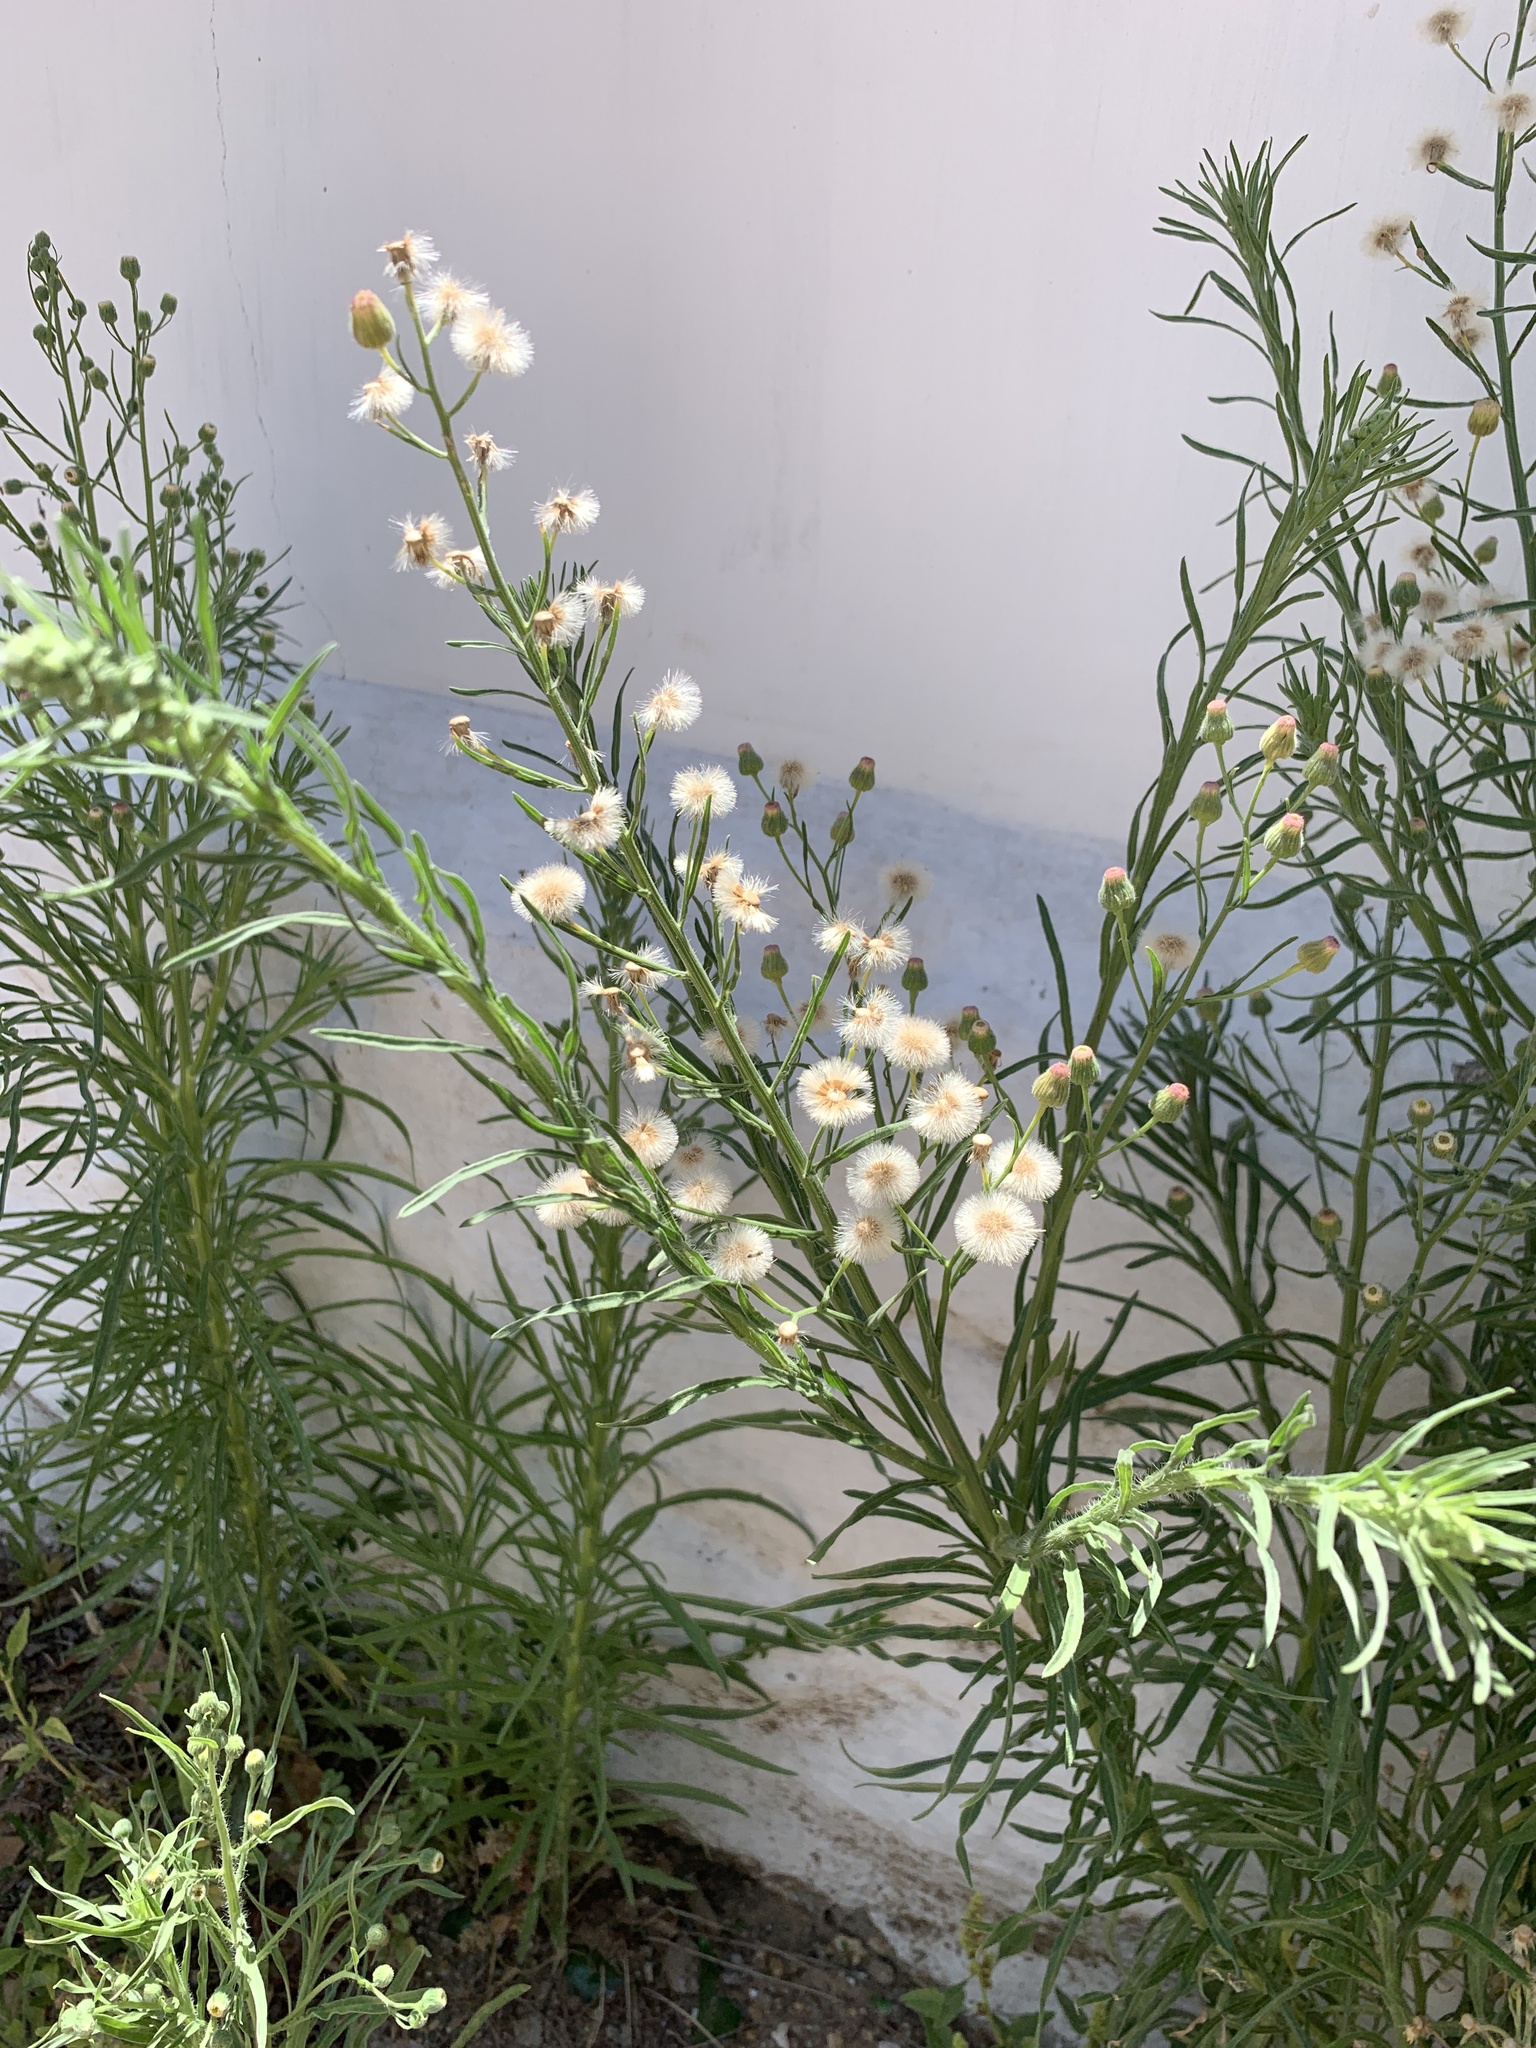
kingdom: Plantae
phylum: Tracheophyta
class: Magnoliopsida
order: Asterales
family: Asteraceae
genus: Erigeron
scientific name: Erigeron bonariensis
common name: Argentine fleabane
